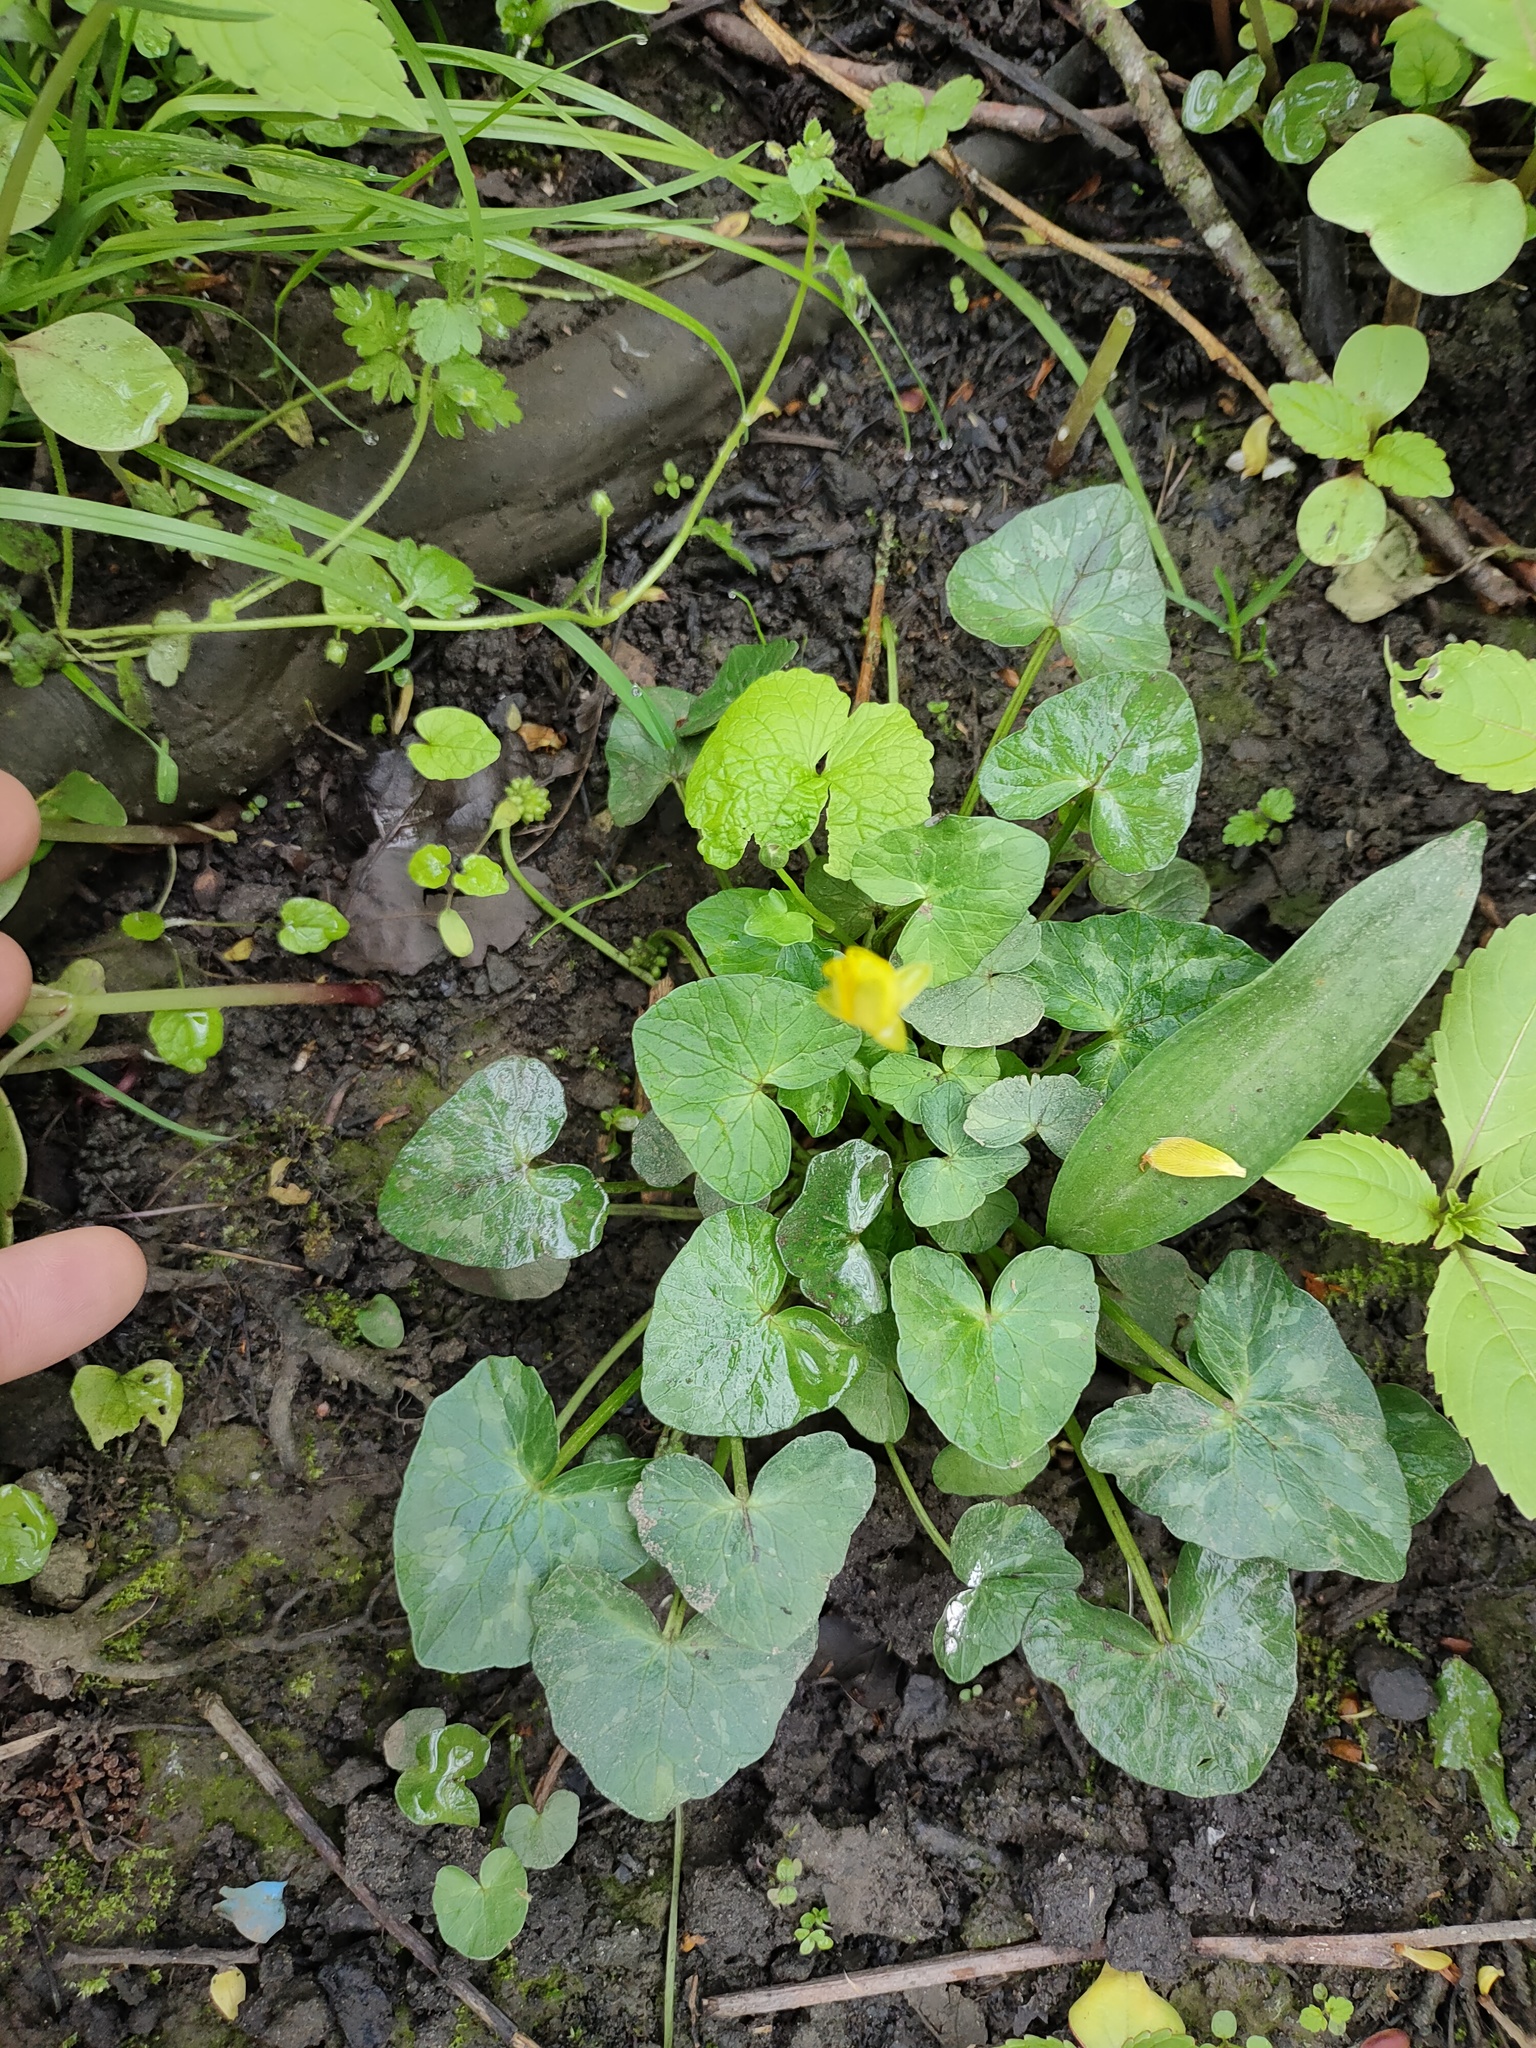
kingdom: Plantae
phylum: Tracheophyta
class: Magnoliopsida
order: Ranunculales
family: Ranunculaceae
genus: Ficaria
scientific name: Ficaria verna
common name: Lesser celandine
